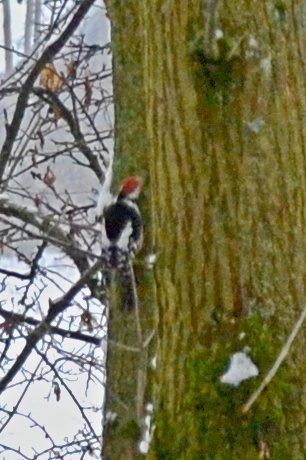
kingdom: Animalia
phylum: Chordata
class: Aves
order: Piciformes
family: Picidae
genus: Dendrocoptes
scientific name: Dendrocoptes medius
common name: Middle spotted woodpecker
